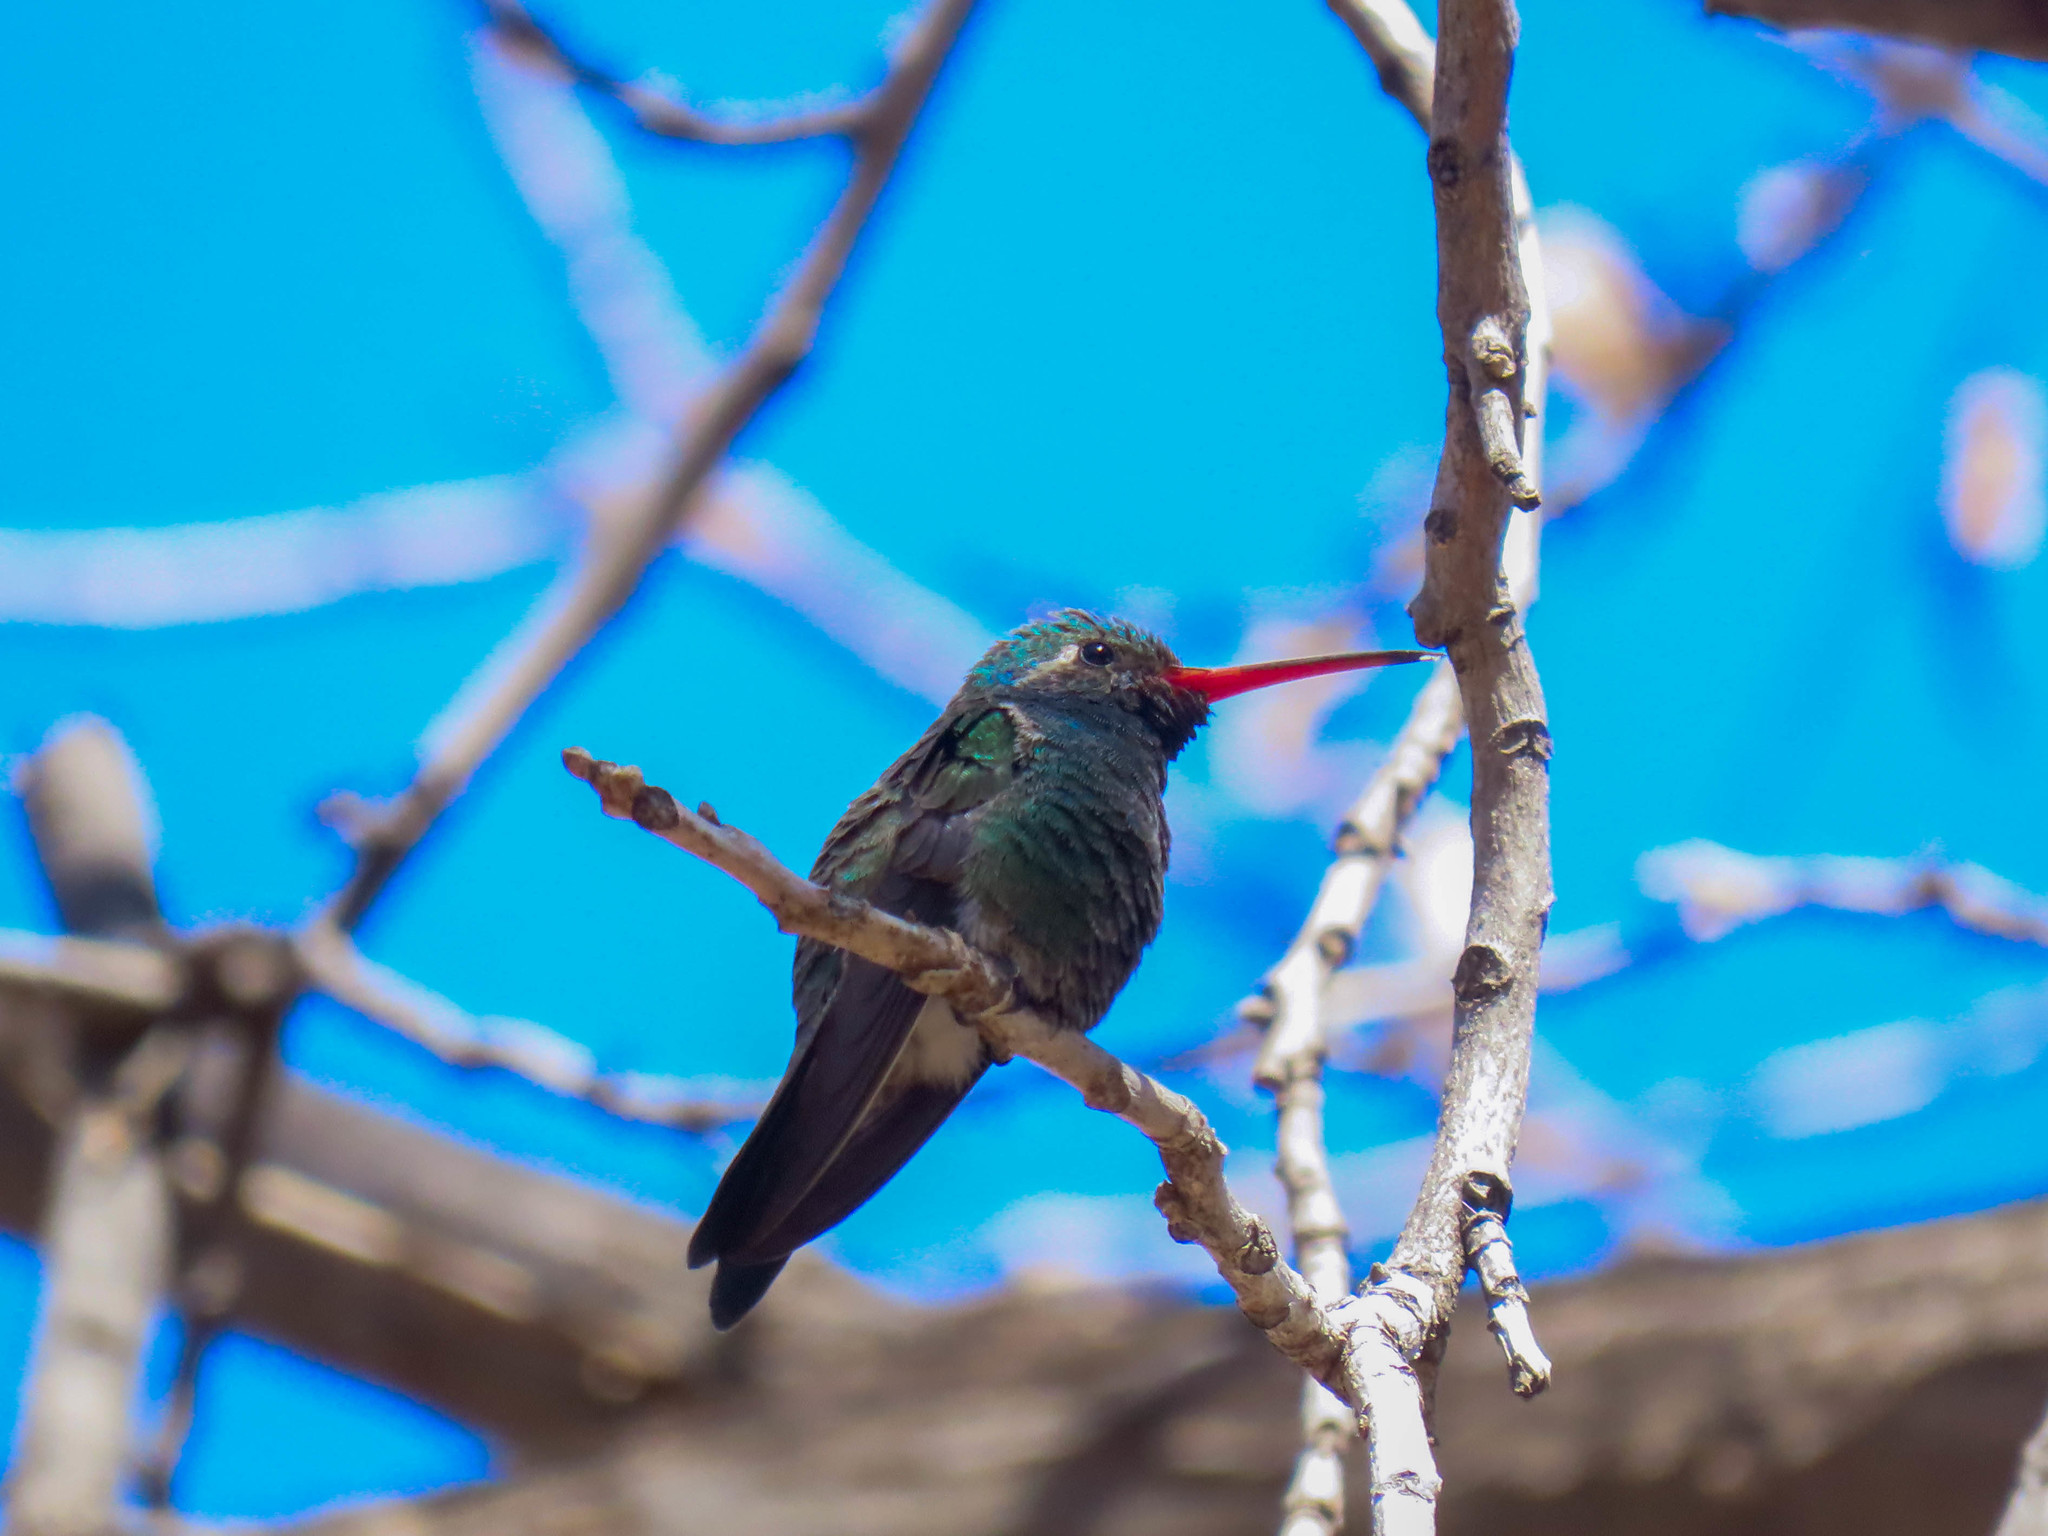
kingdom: Animalia
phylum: Chordata
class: Aves
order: Apodiformes
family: Trochilidae
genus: Cynanthus
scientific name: Cynanthus latirostris
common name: Broad-billed hummingbird
